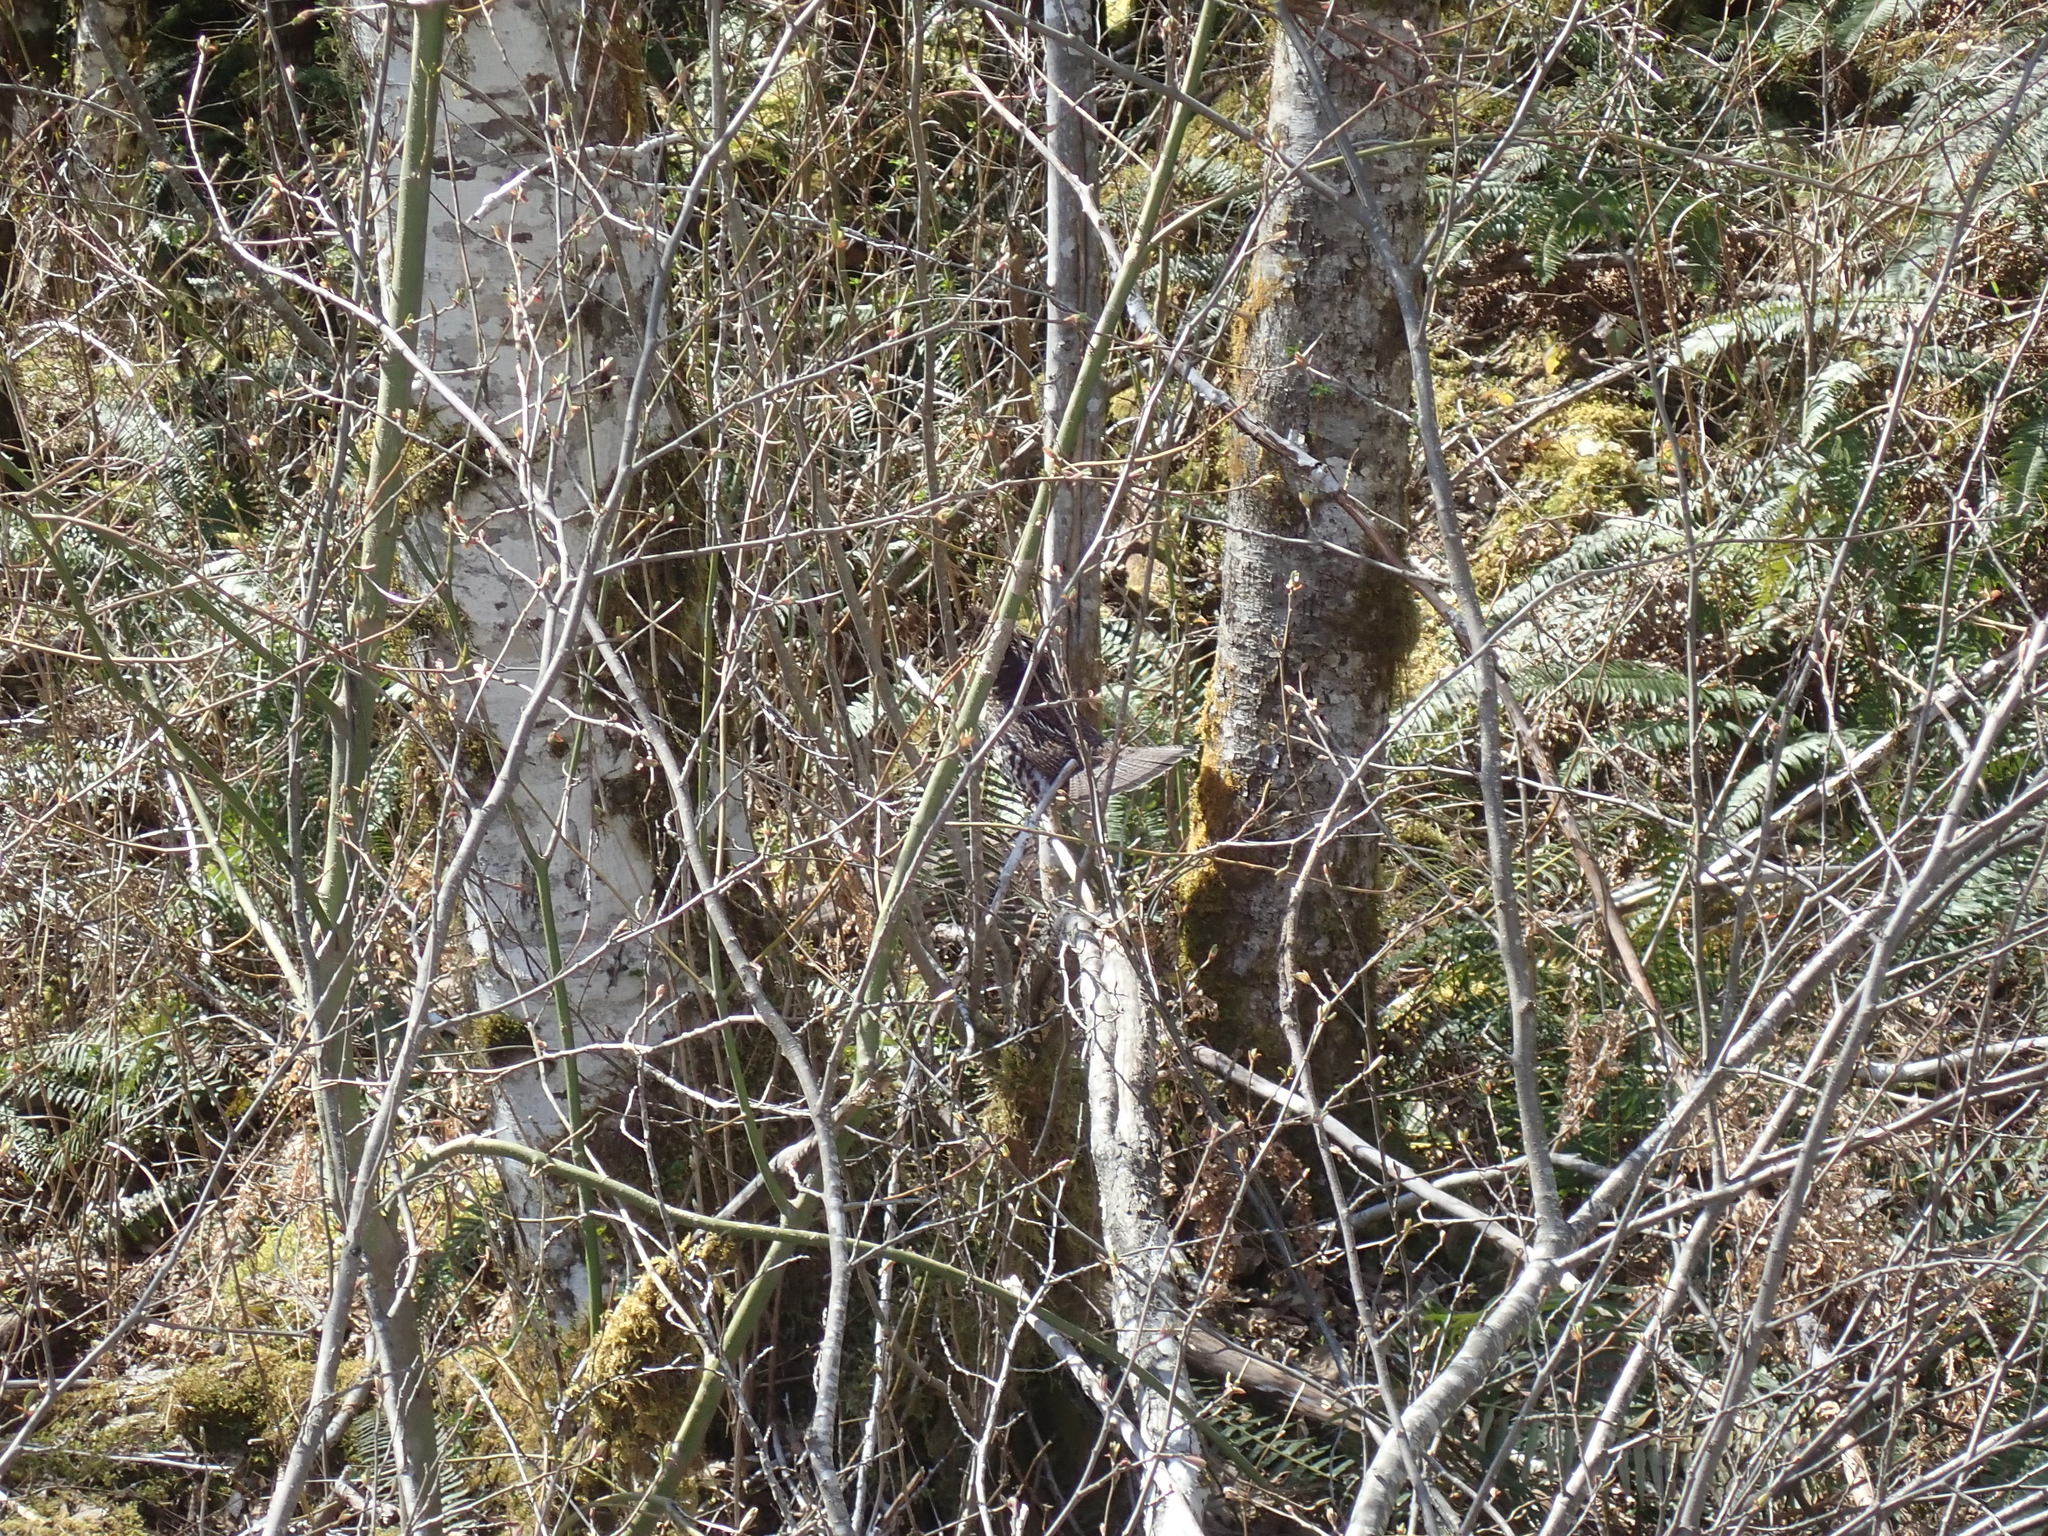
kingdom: Animalia
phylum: Chordata
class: Aves
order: Galliformes
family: Phasianidae
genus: Bonasa
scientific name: Bonasa umbellus
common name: Ruffed grouse
